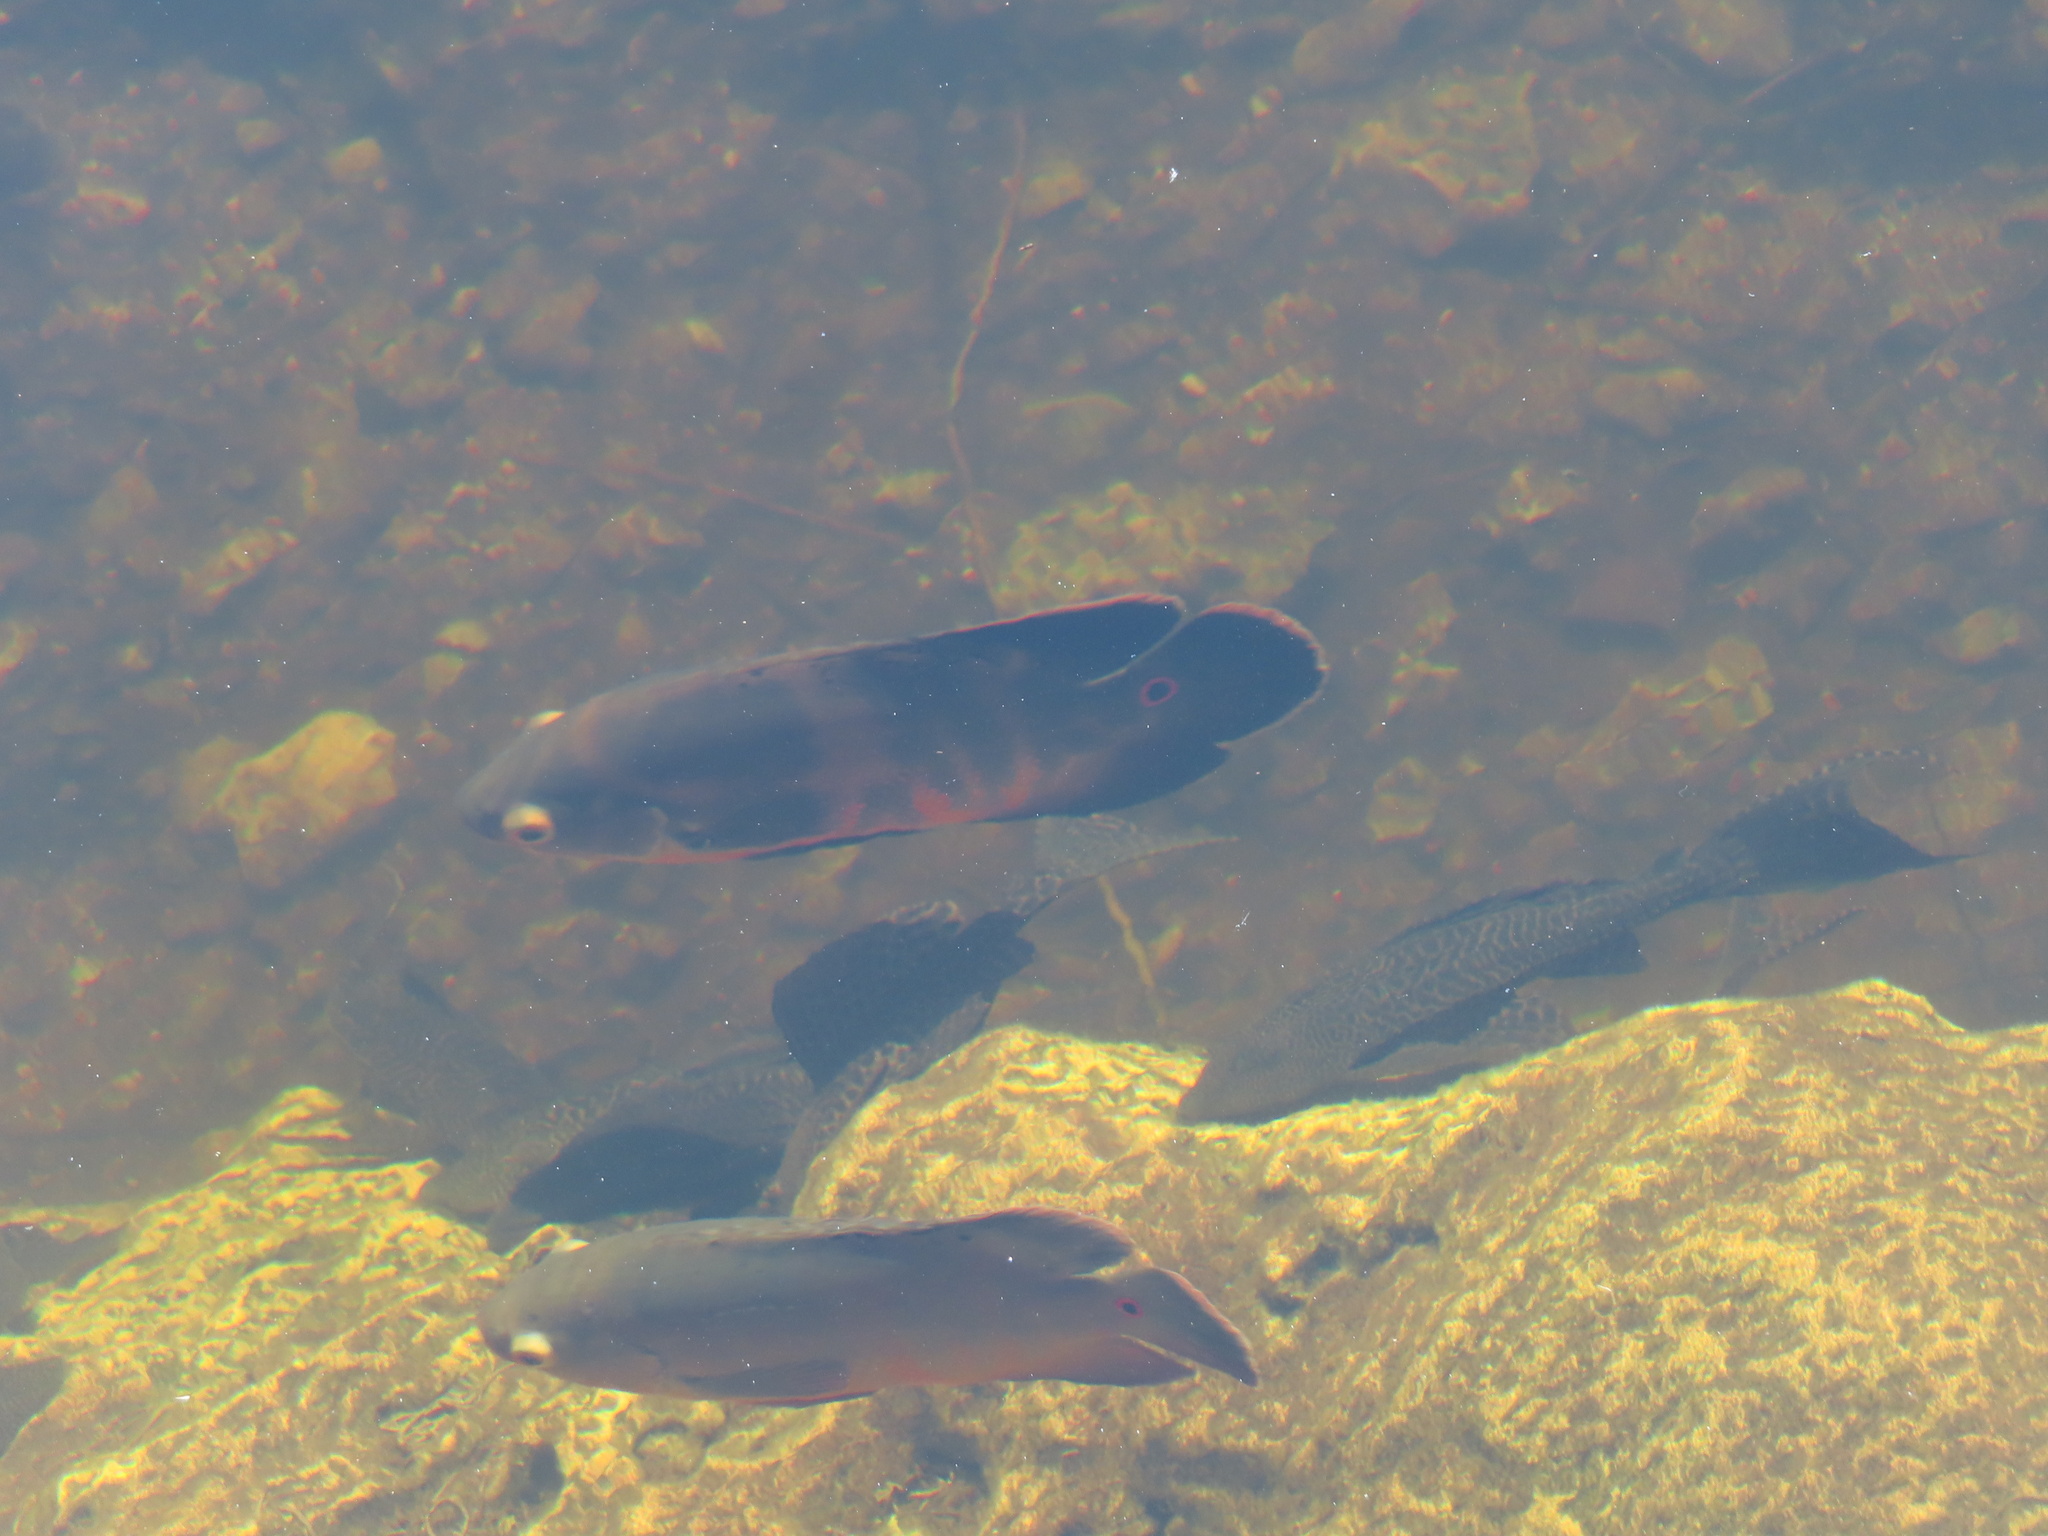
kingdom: Animalia
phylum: Chordata
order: Perciformes
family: Cichlidae
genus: Astronotus
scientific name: Astronotus ocellatus
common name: Oscar
